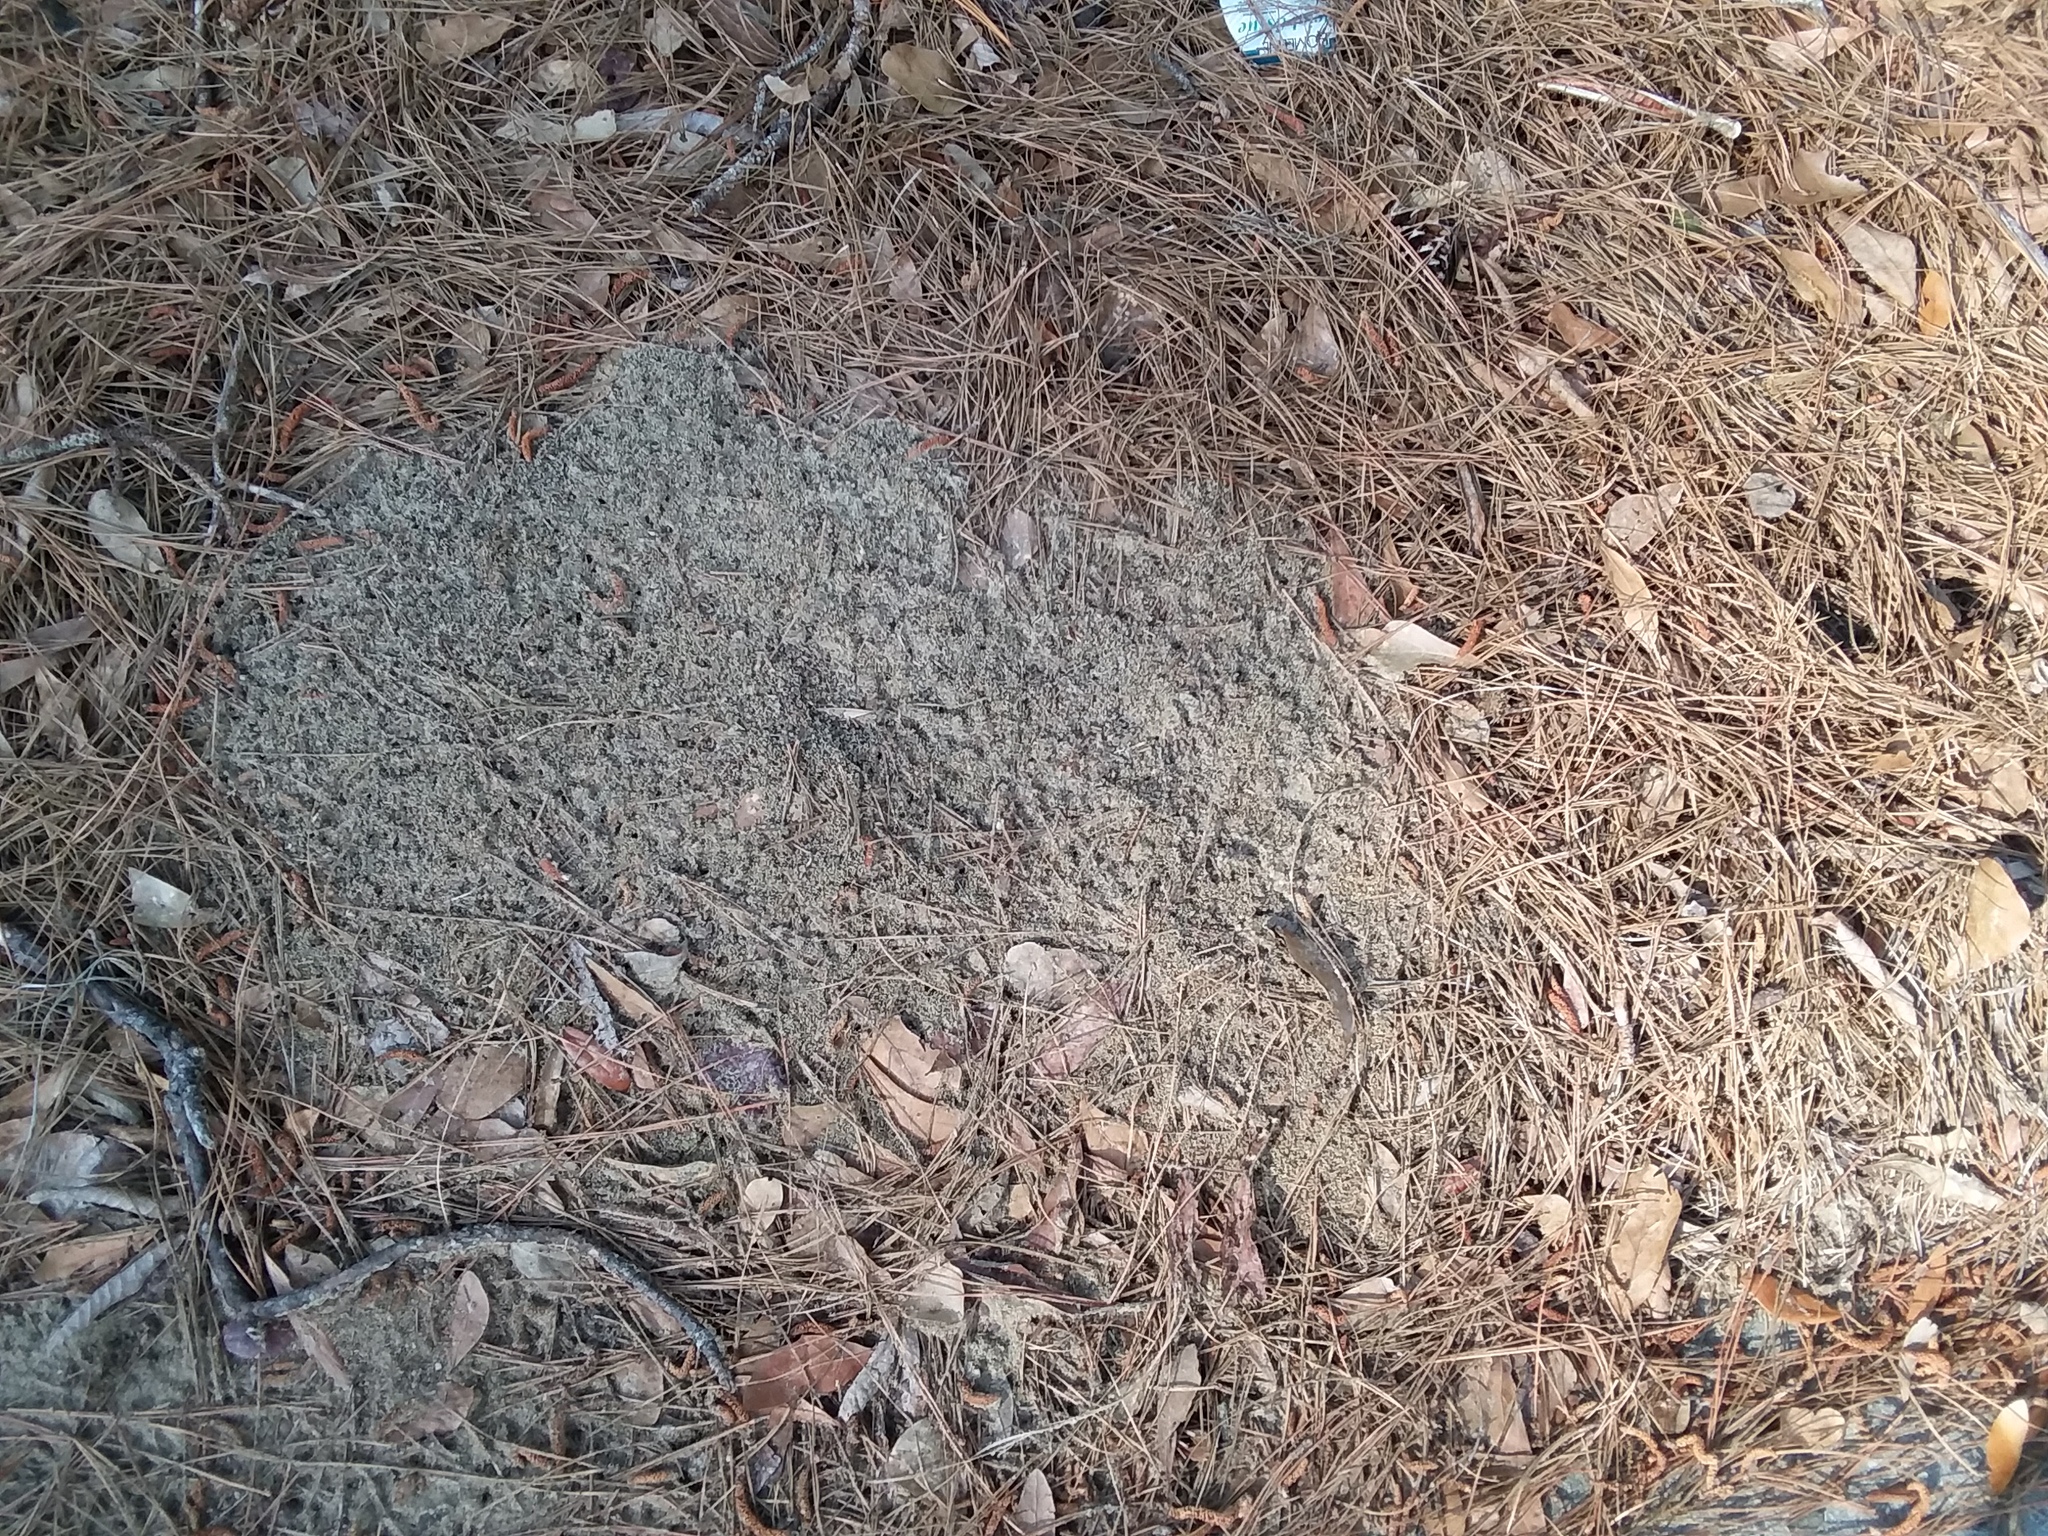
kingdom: Animalia
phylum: Arthropoda
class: Insecta
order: Hymenoptera
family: Formicidae
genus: Solenopsis
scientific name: Solenopsis invicta
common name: Red imported fire ant
